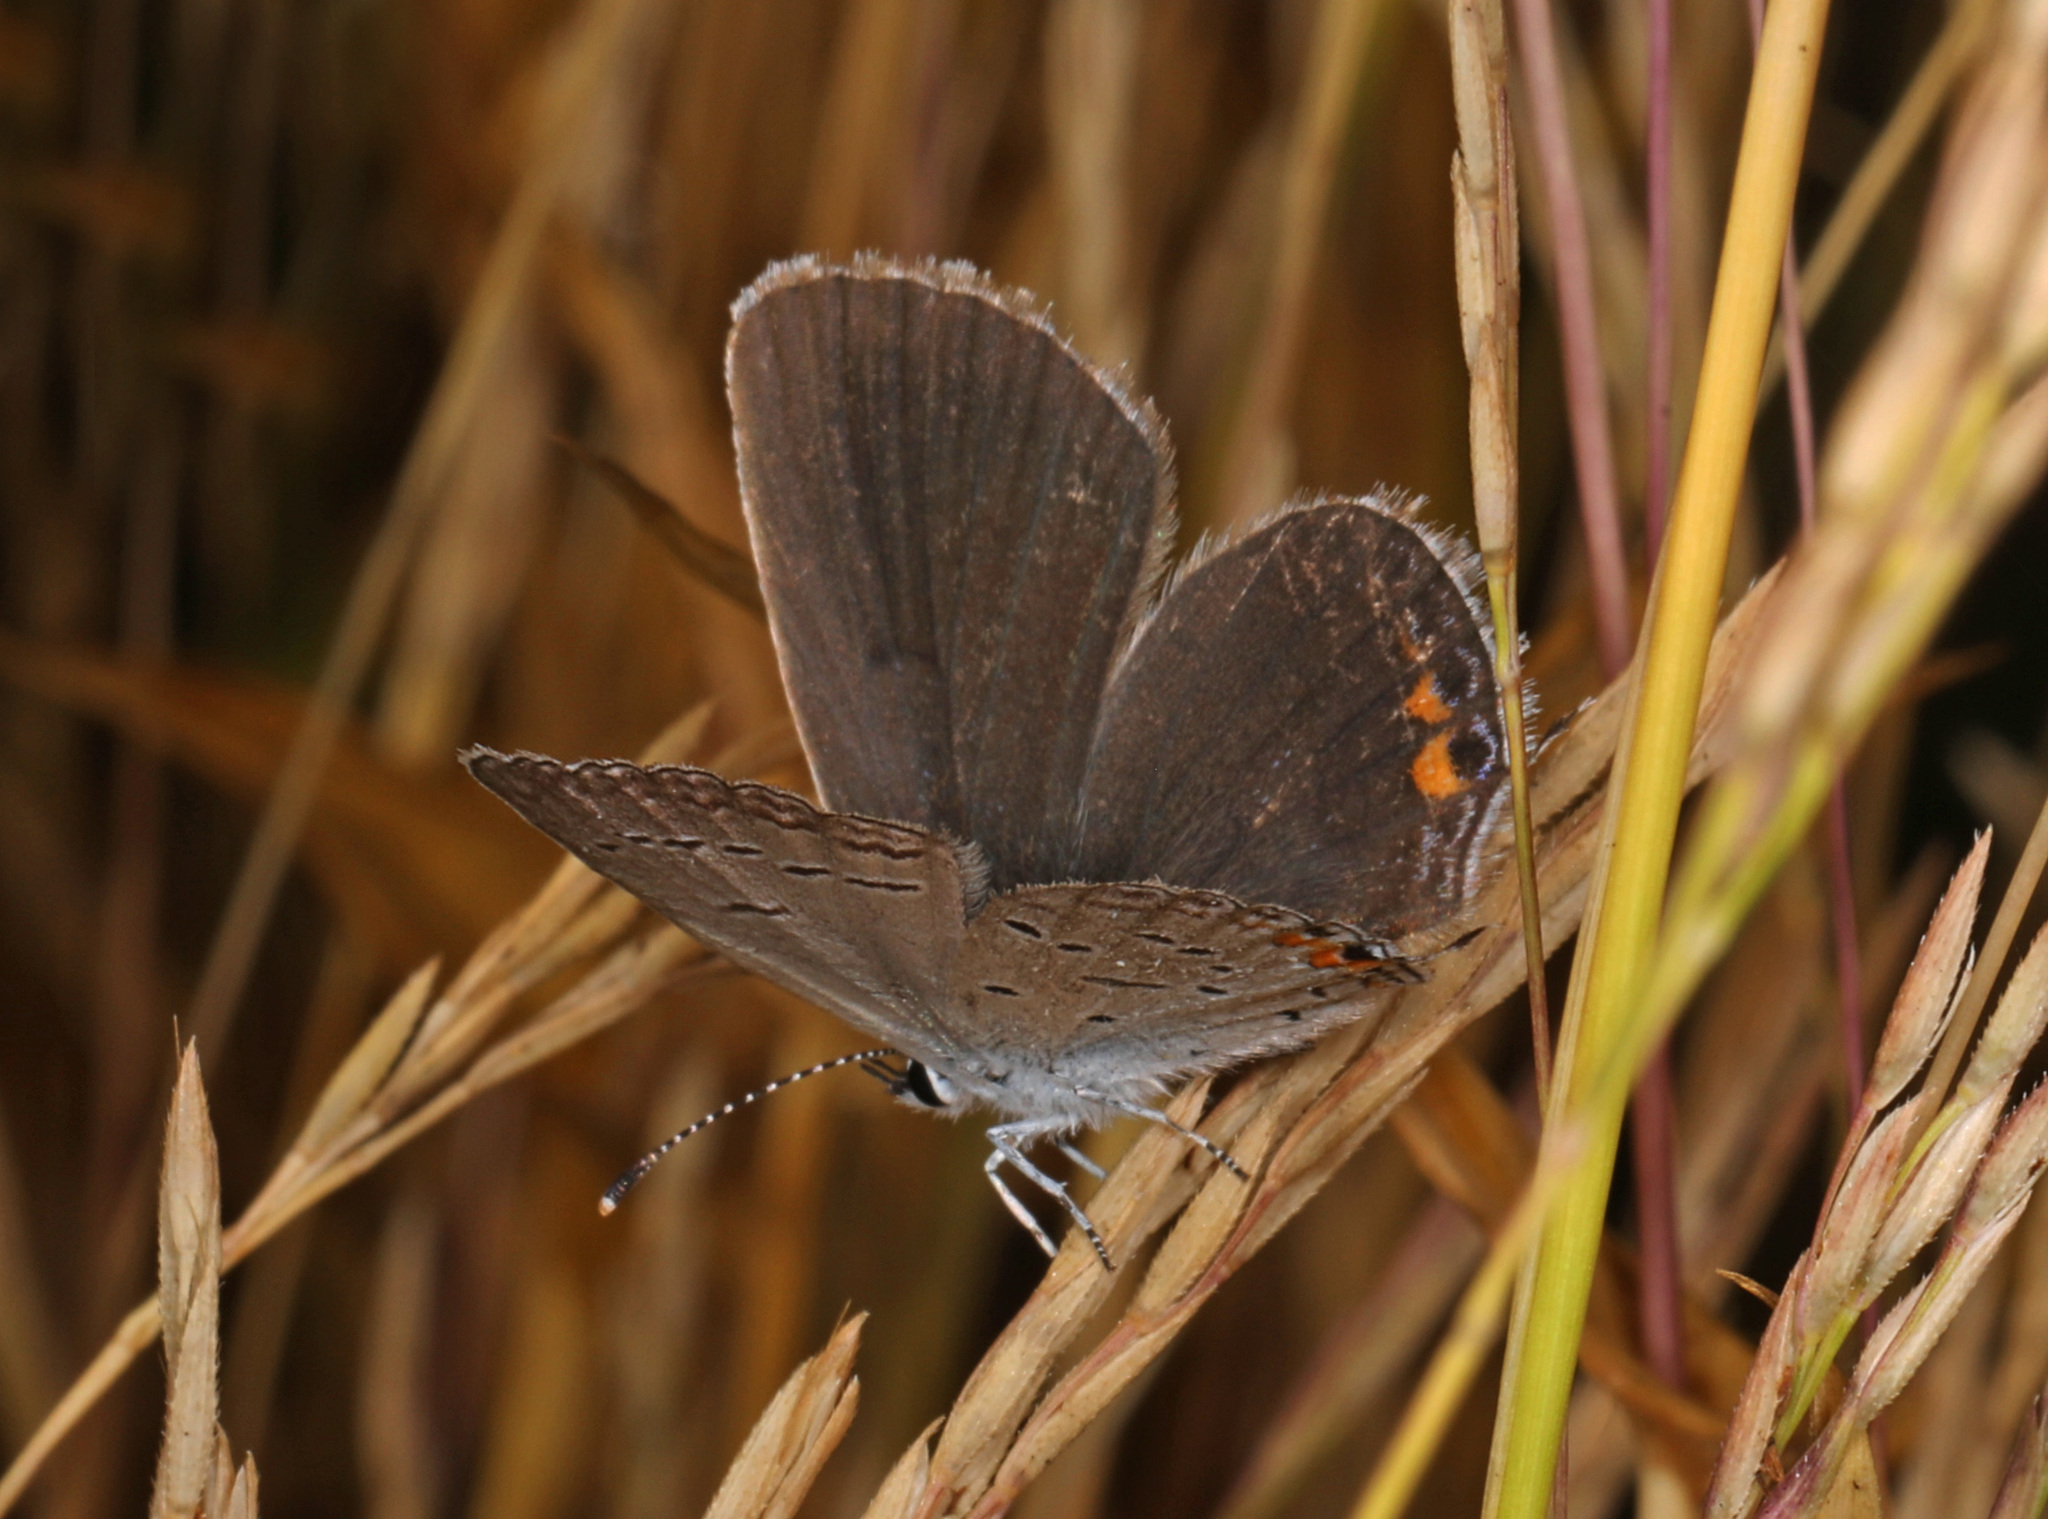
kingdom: Animalia
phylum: Arthropoda
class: Insecta
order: Lepidoptera
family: Lycaenidae
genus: Elkalyce
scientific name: Elkalyce comyntas
